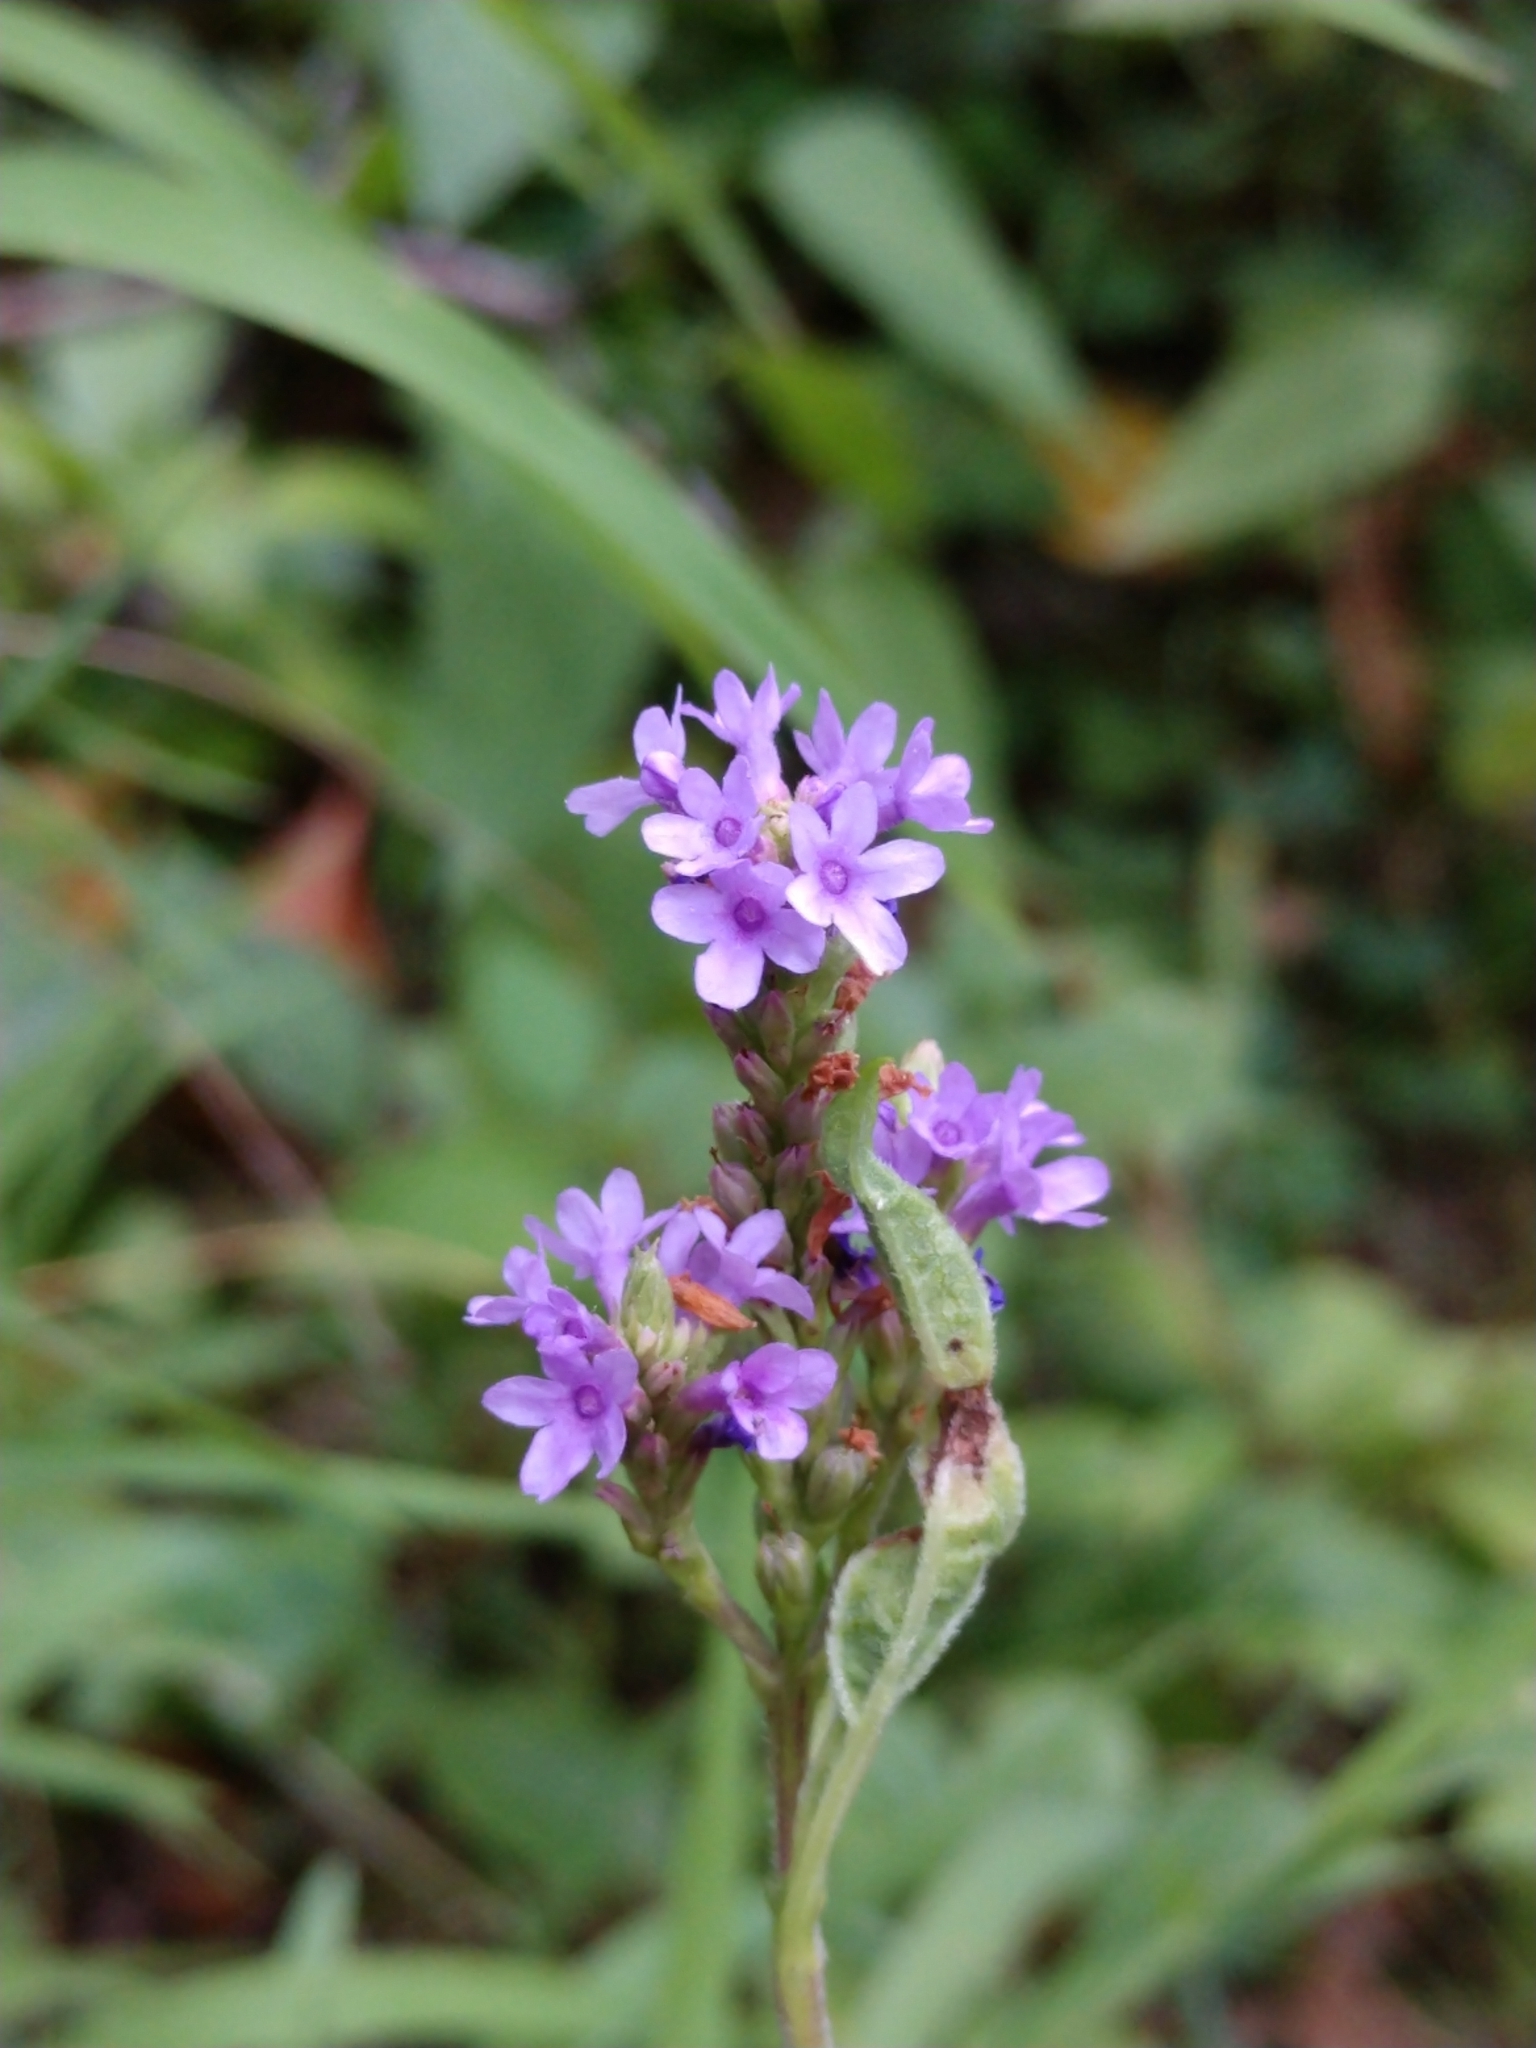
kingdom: Plantae
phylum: Tracheophyta
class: Magnoliopsida
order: Lamiales
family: Verbenaceae
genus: Verbena
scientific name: Verbena hastata
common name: American blue vervain
